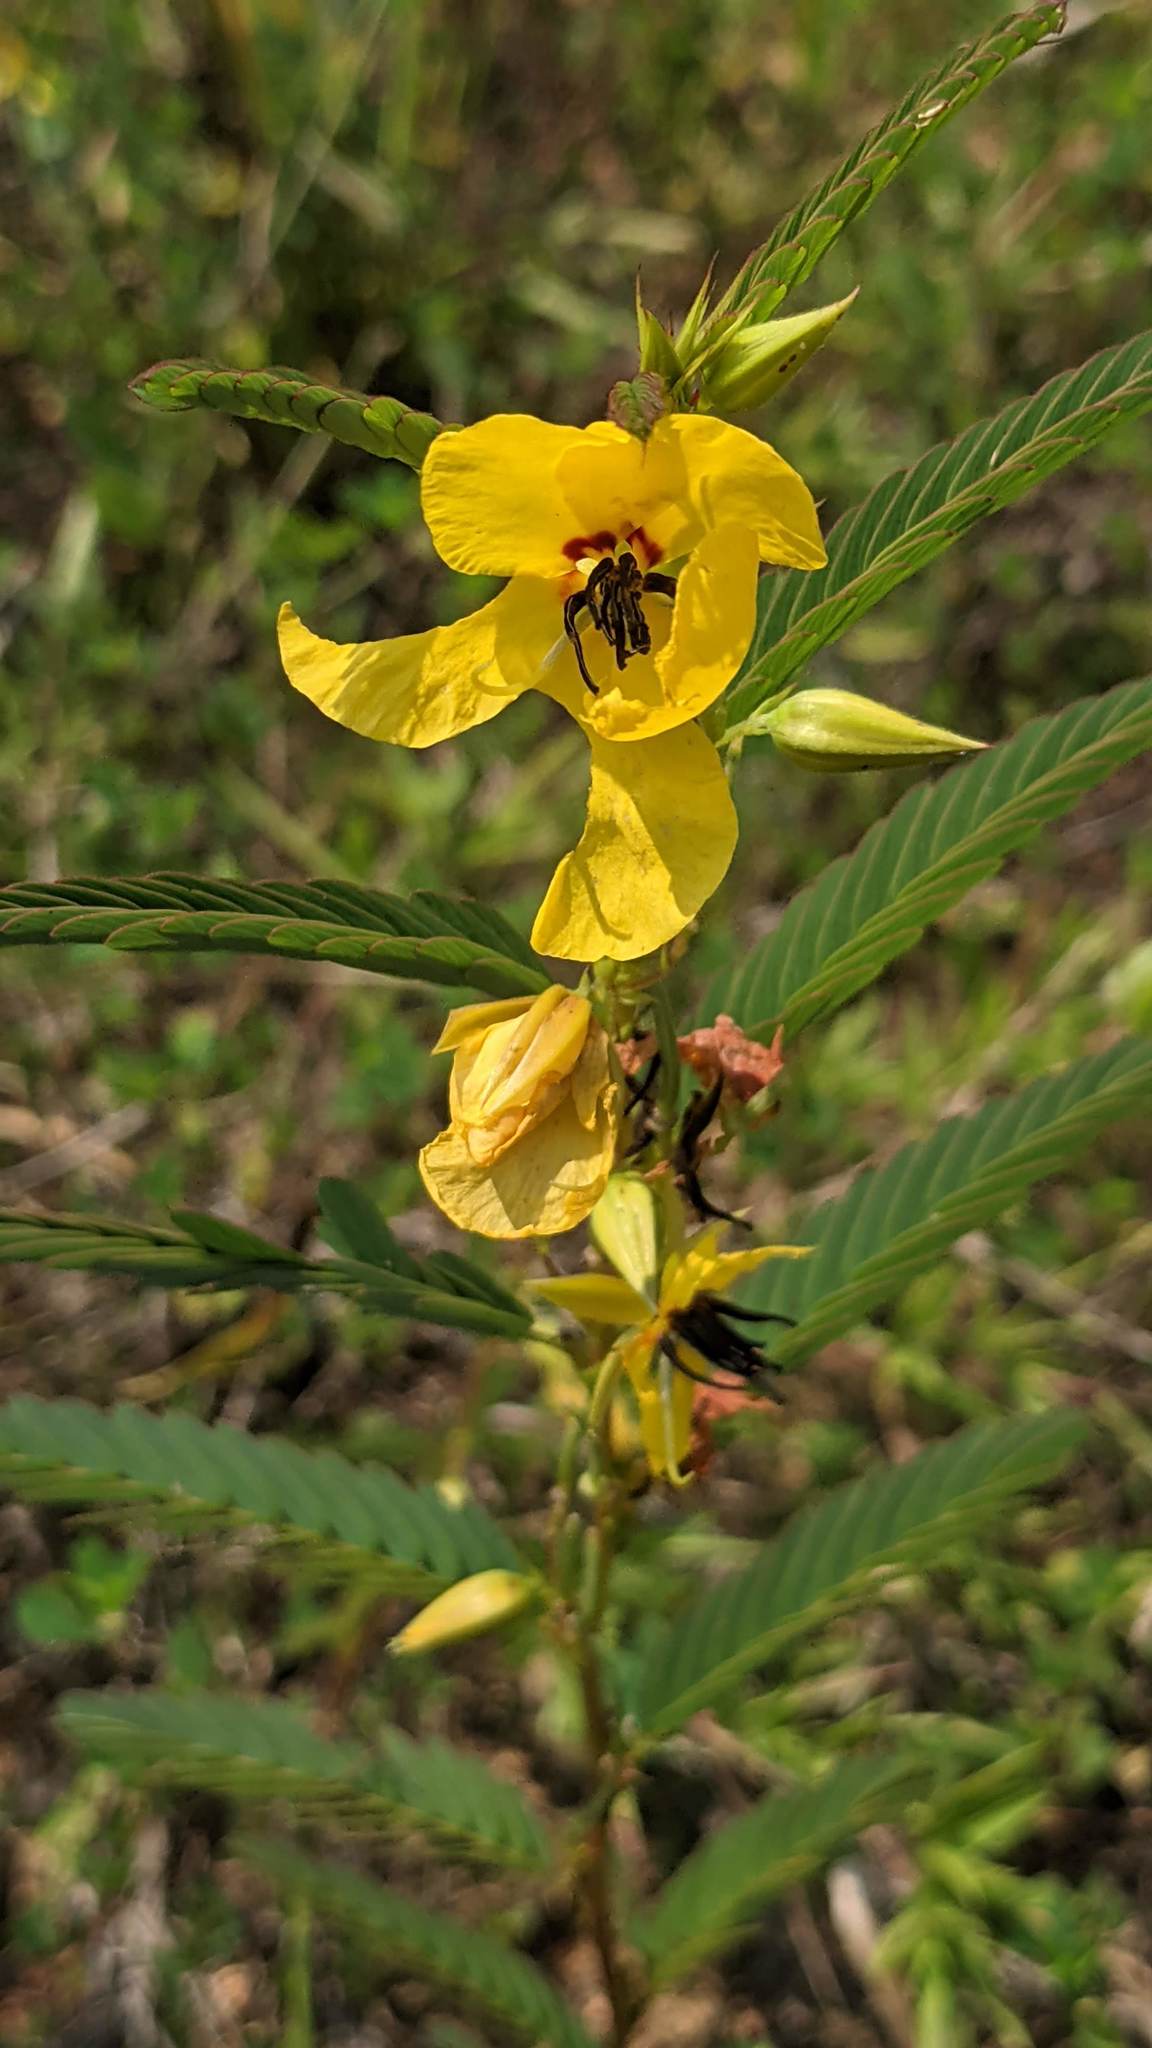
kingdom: Plantae
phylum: Tracheophyta
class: Magnoliopsida
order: Fabales
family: Fabaceae
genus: Chamaecrista
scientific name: Chamaecrista fasciculata
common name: Golden cassia
